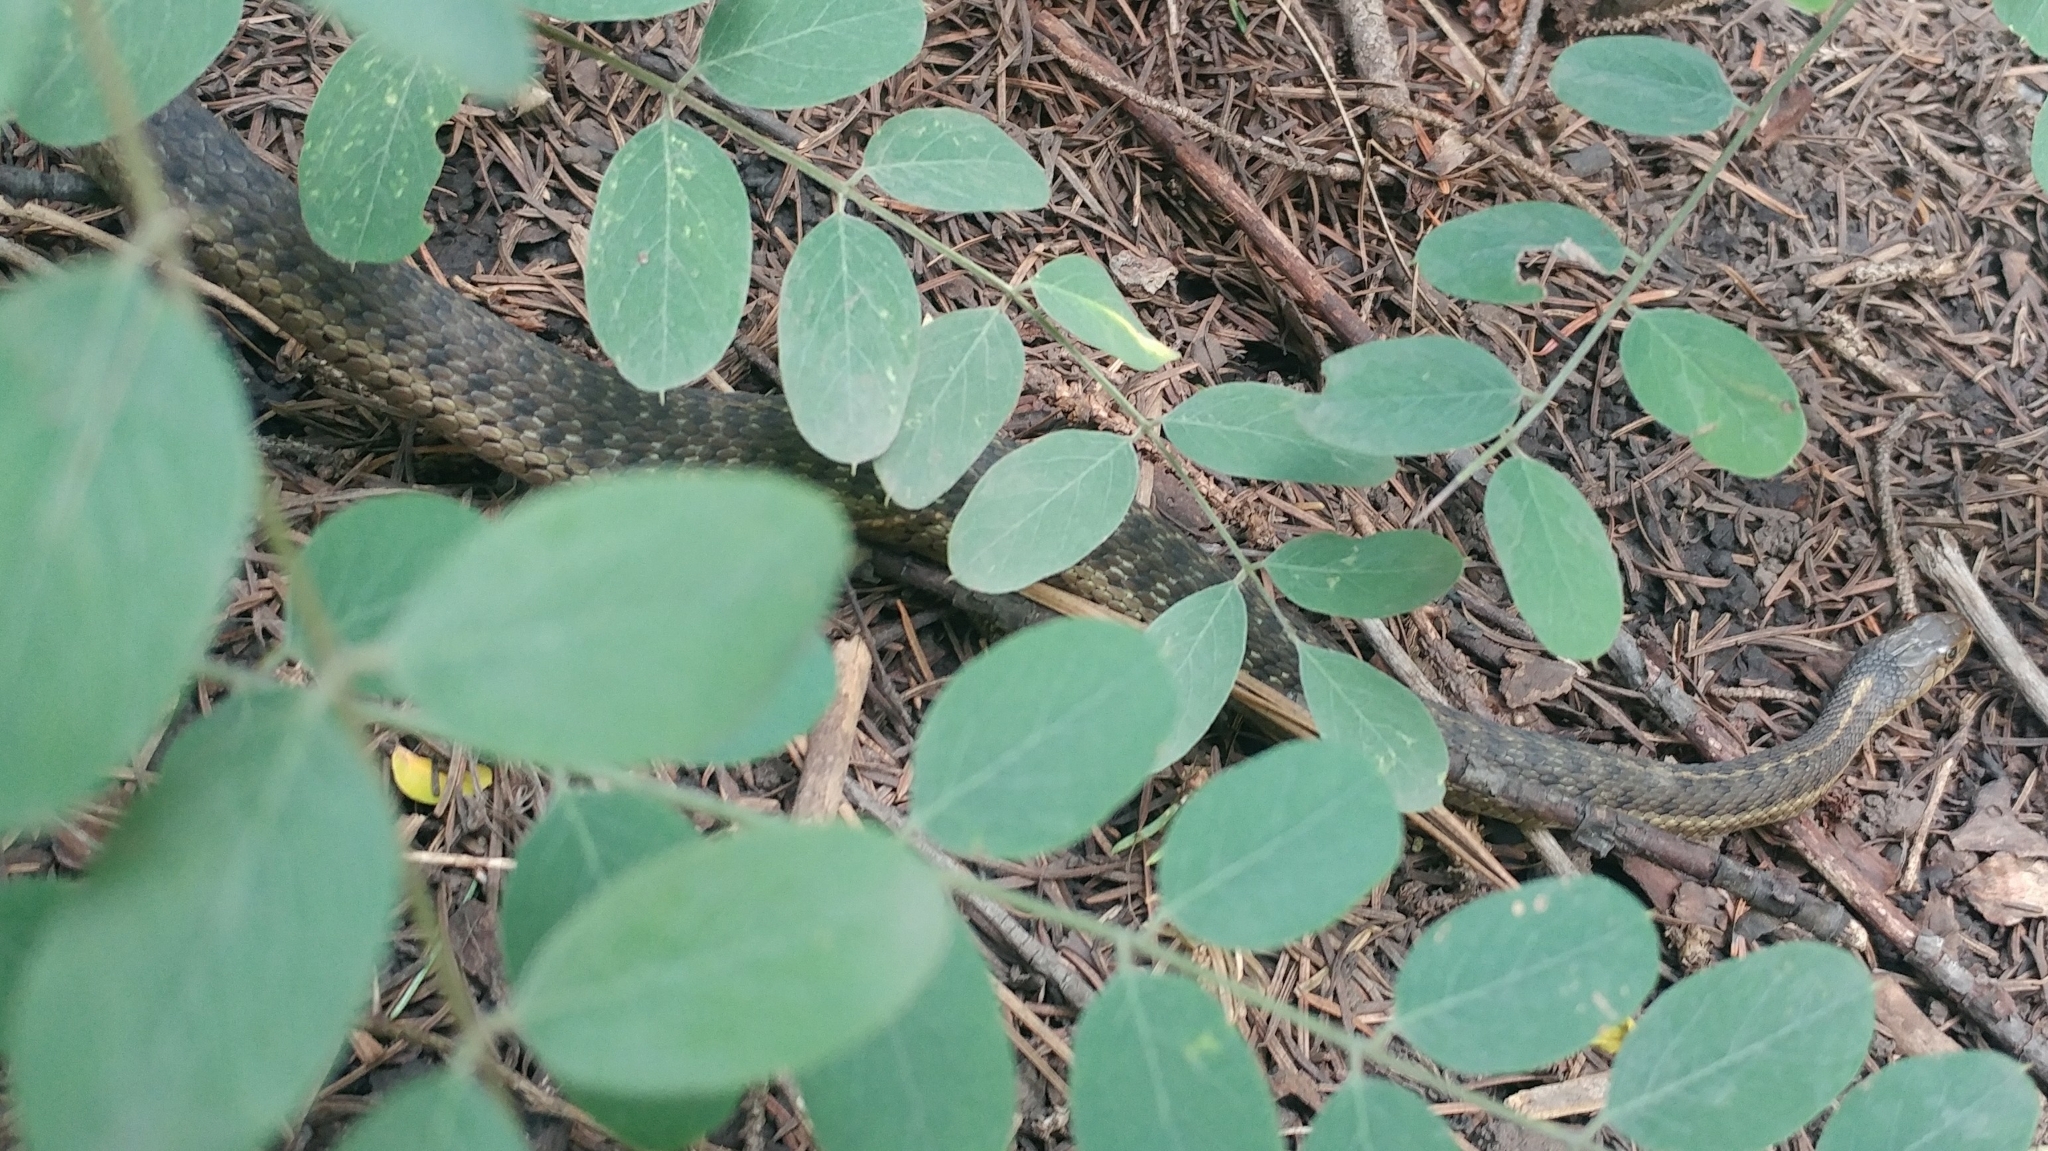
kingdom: Animalia
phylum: Chordata
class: Squamata
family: Colubridae
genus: Thamnophis
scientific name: Thamnophis elegans
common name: Western terrestrial garter snake
